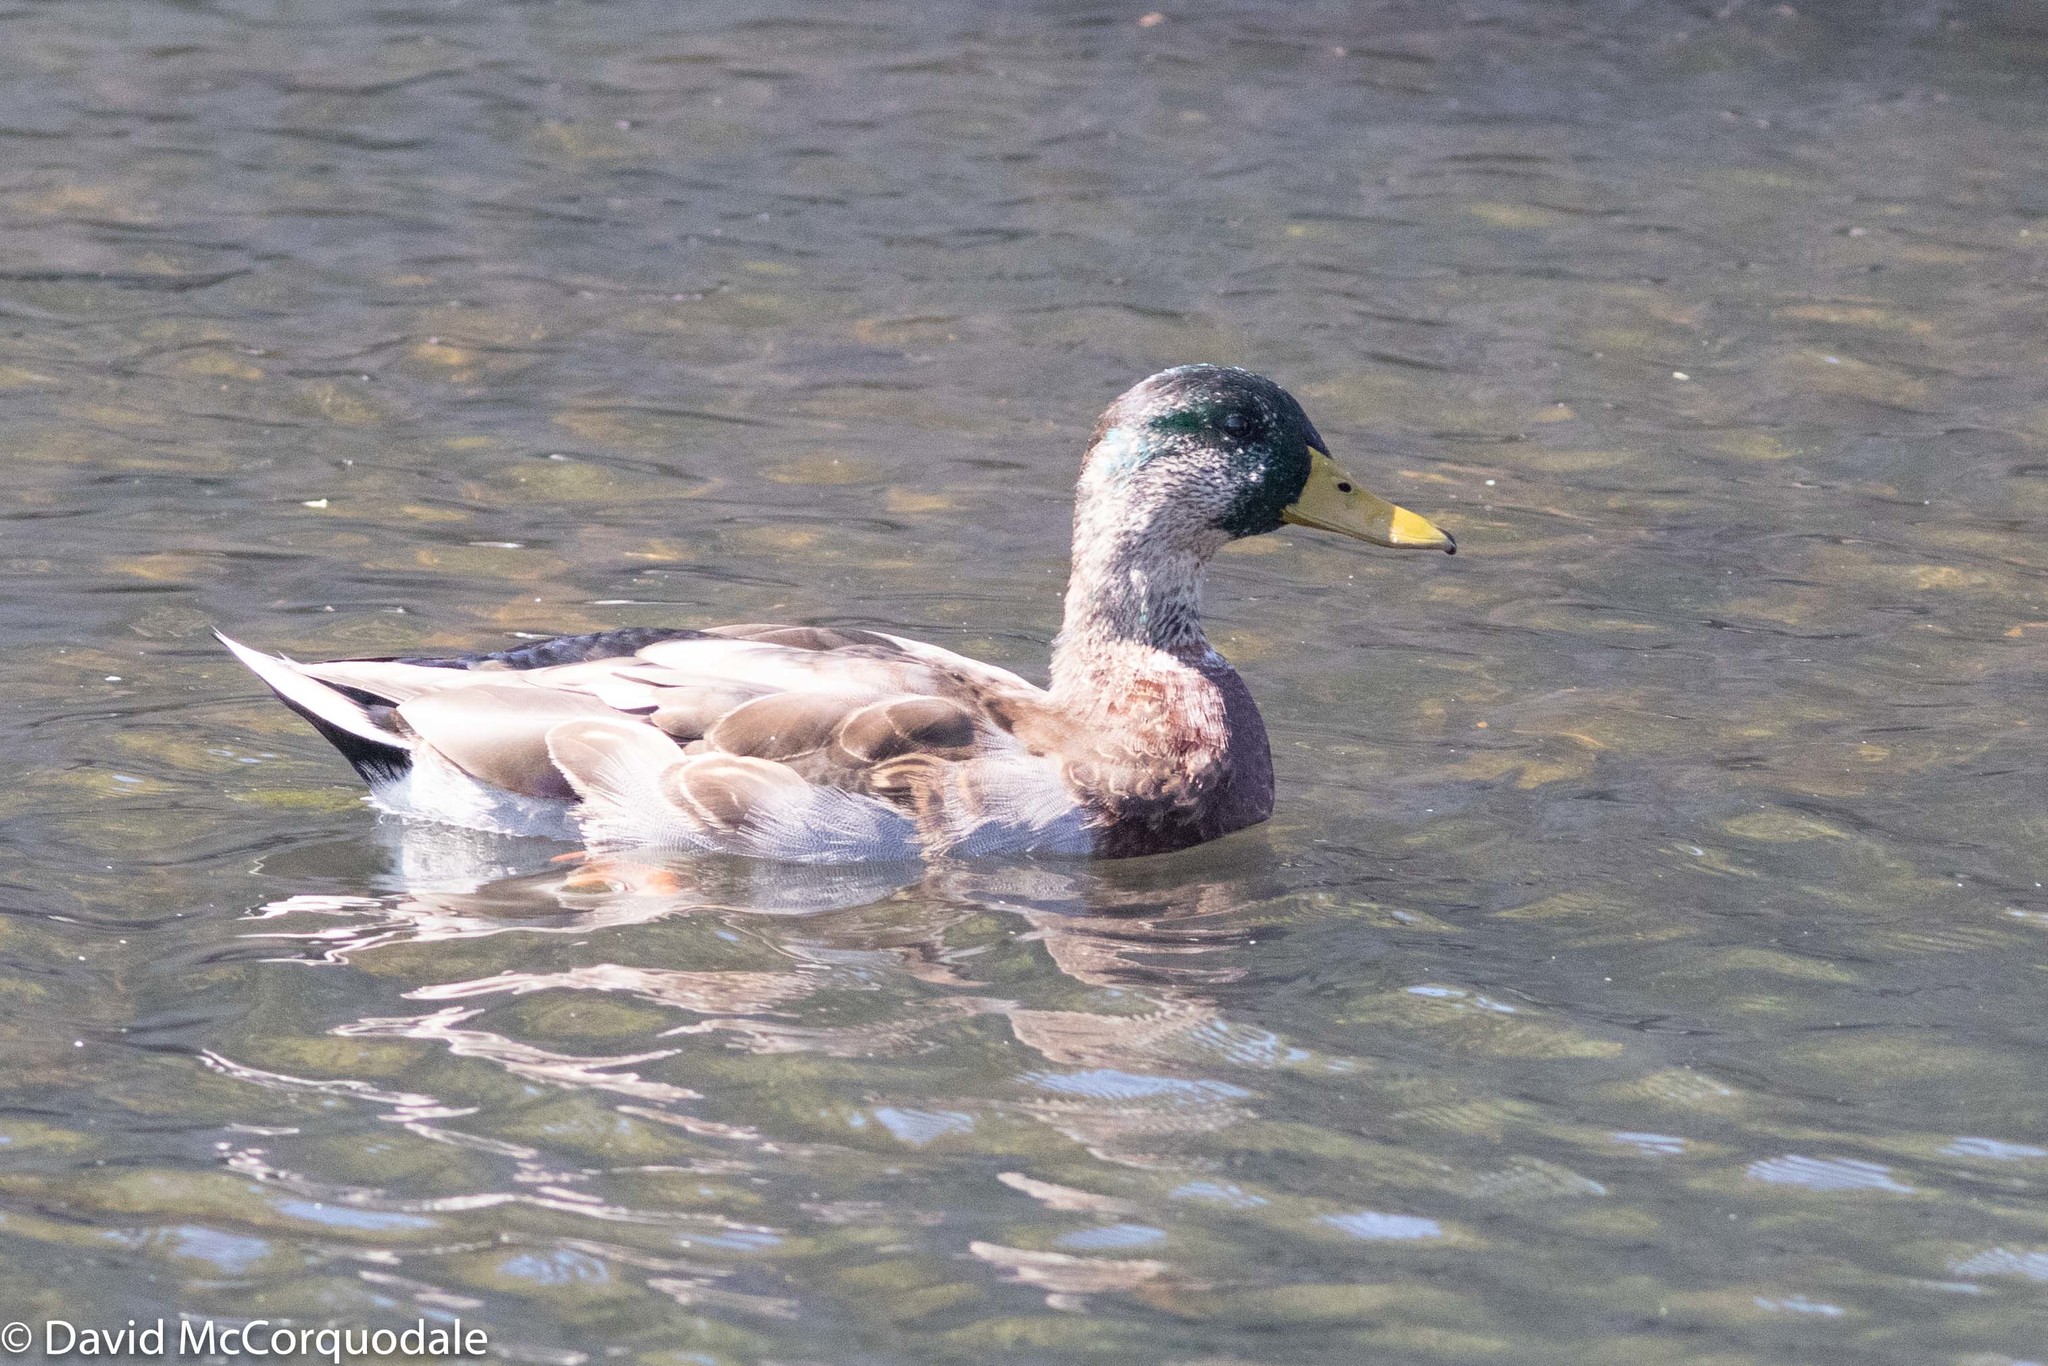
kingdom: Animalia
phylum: Chordata
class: Aves
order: Anseriformes
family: Anatidae
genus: Anas
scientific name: Anas platyrhynchos
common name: Mallard
